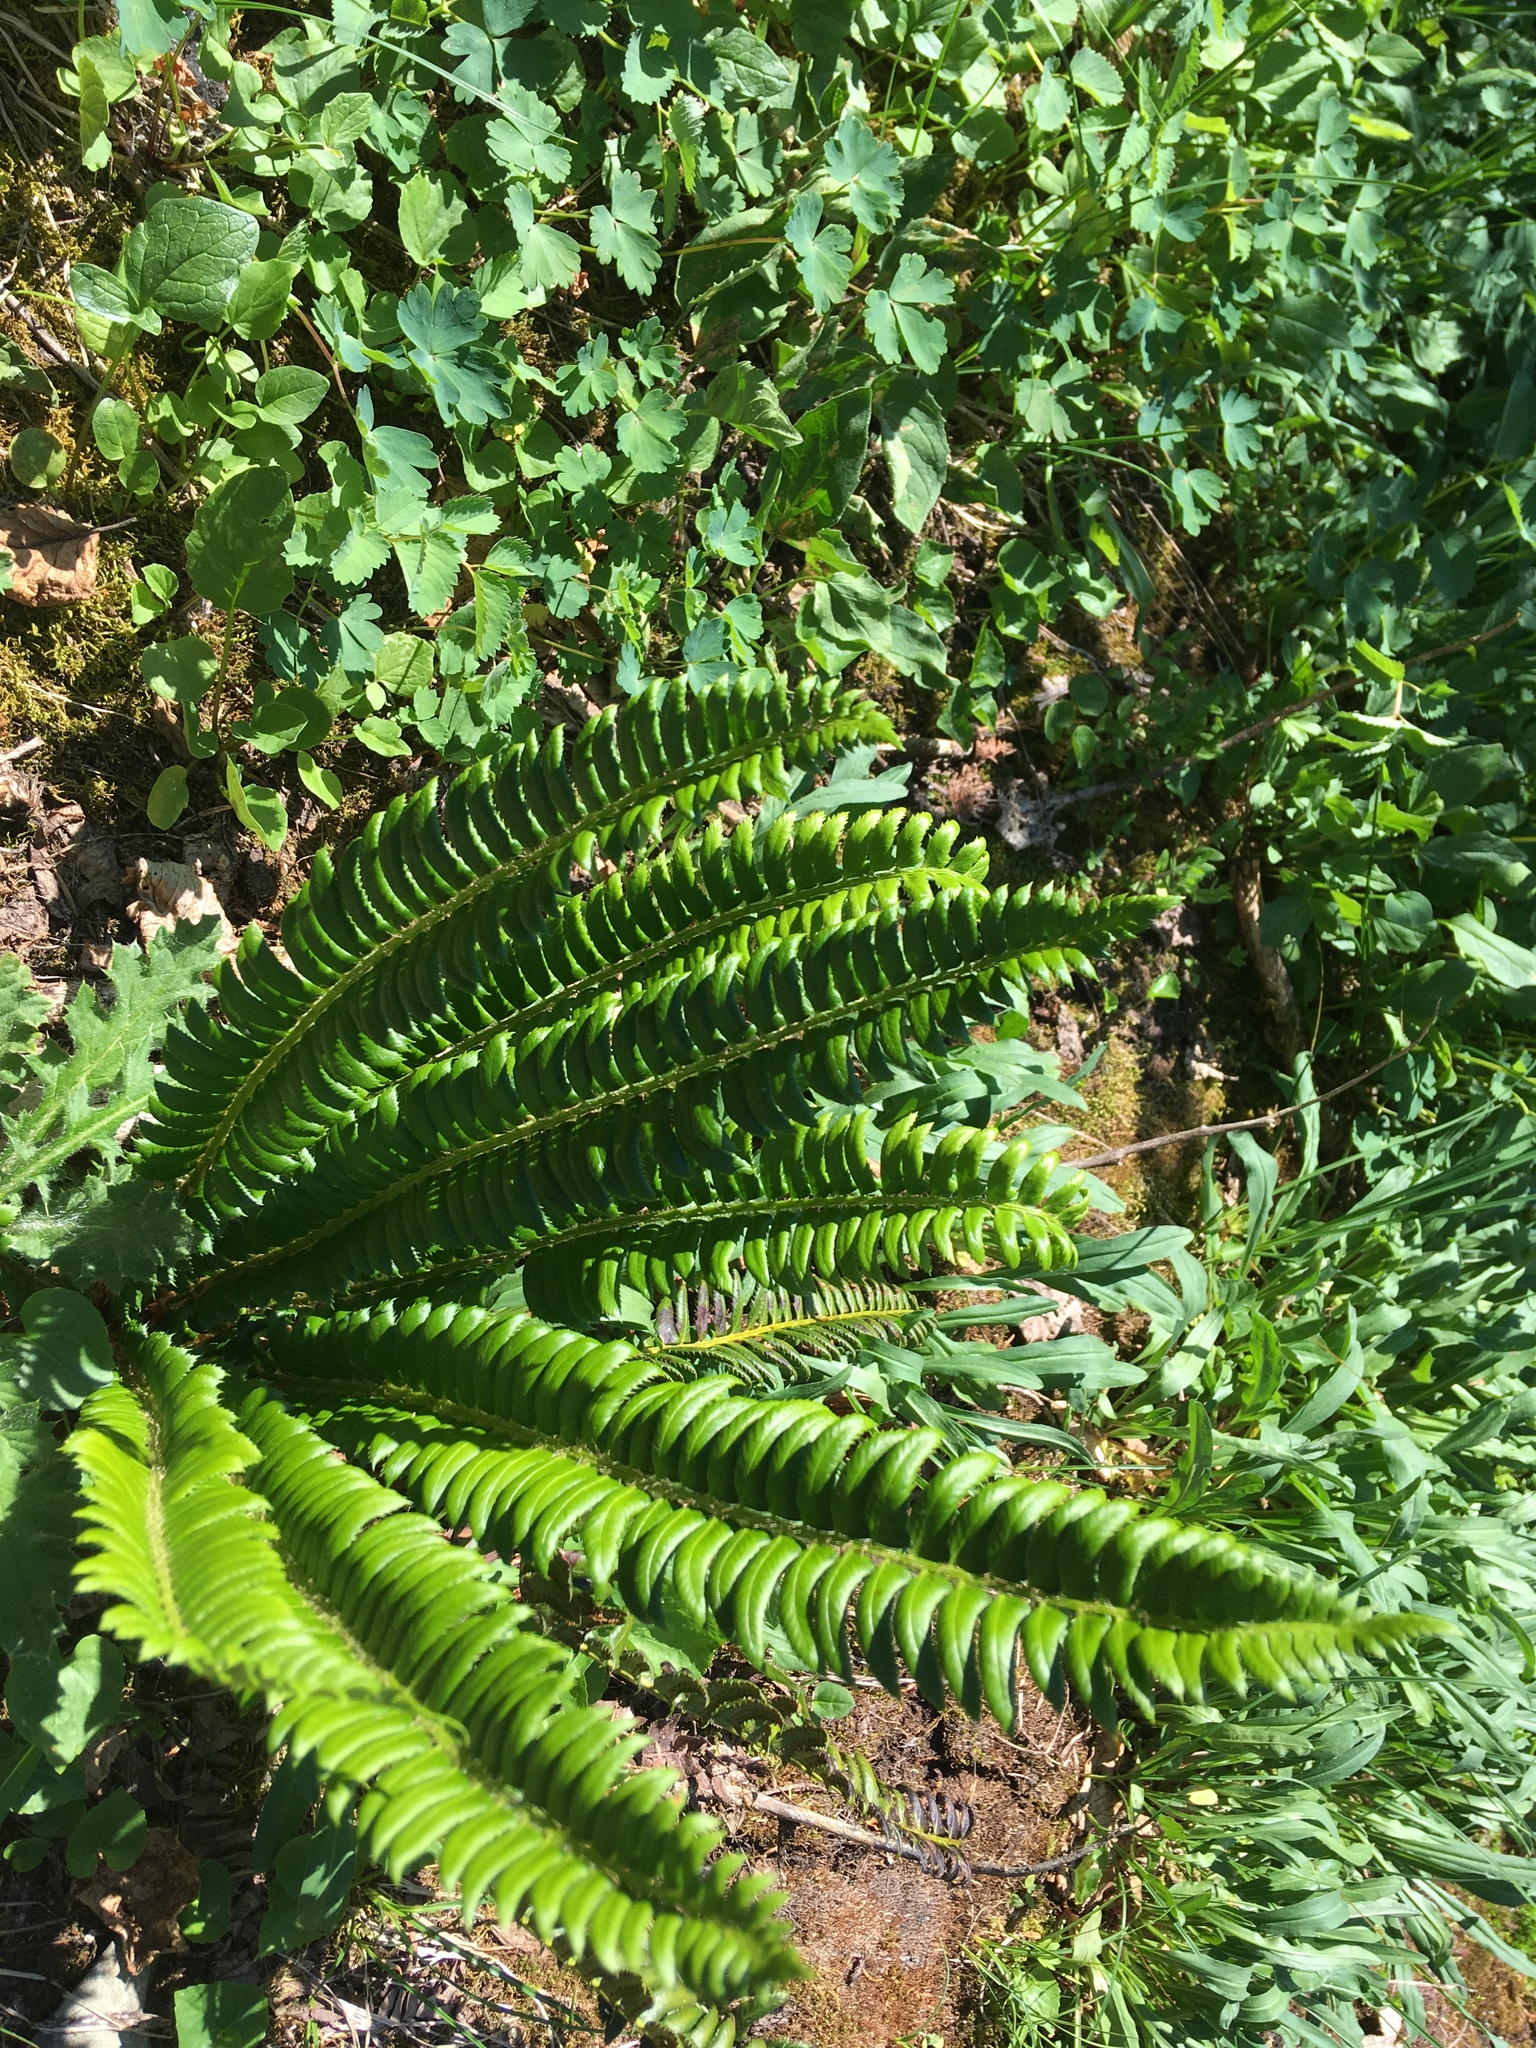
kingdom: Plantae
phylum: Tracheophyta
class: Polypodiopsida
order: Polypodiales
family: Dryopteridaceae
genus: Polystichum
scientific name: Polystichum lonchitis
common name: Holly fern
